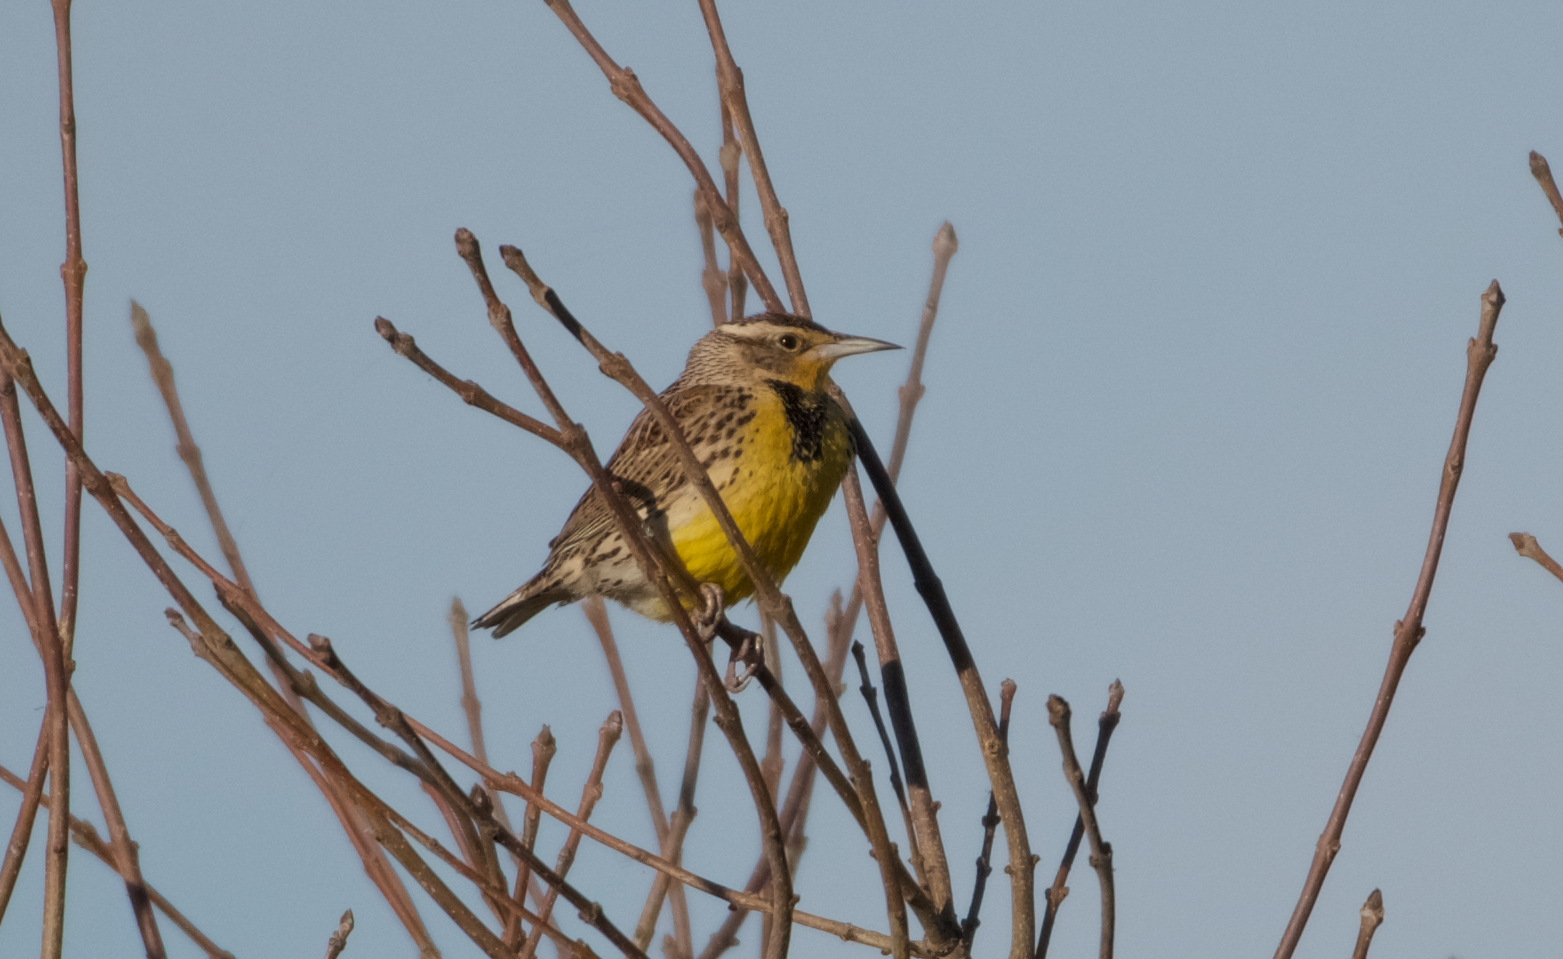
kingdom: Animalia
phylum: Chordata
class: Aves
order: Passeriformes
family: Icteridae
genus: Sturnella
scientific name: Sturnella neglecta
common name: Western meadowlark
